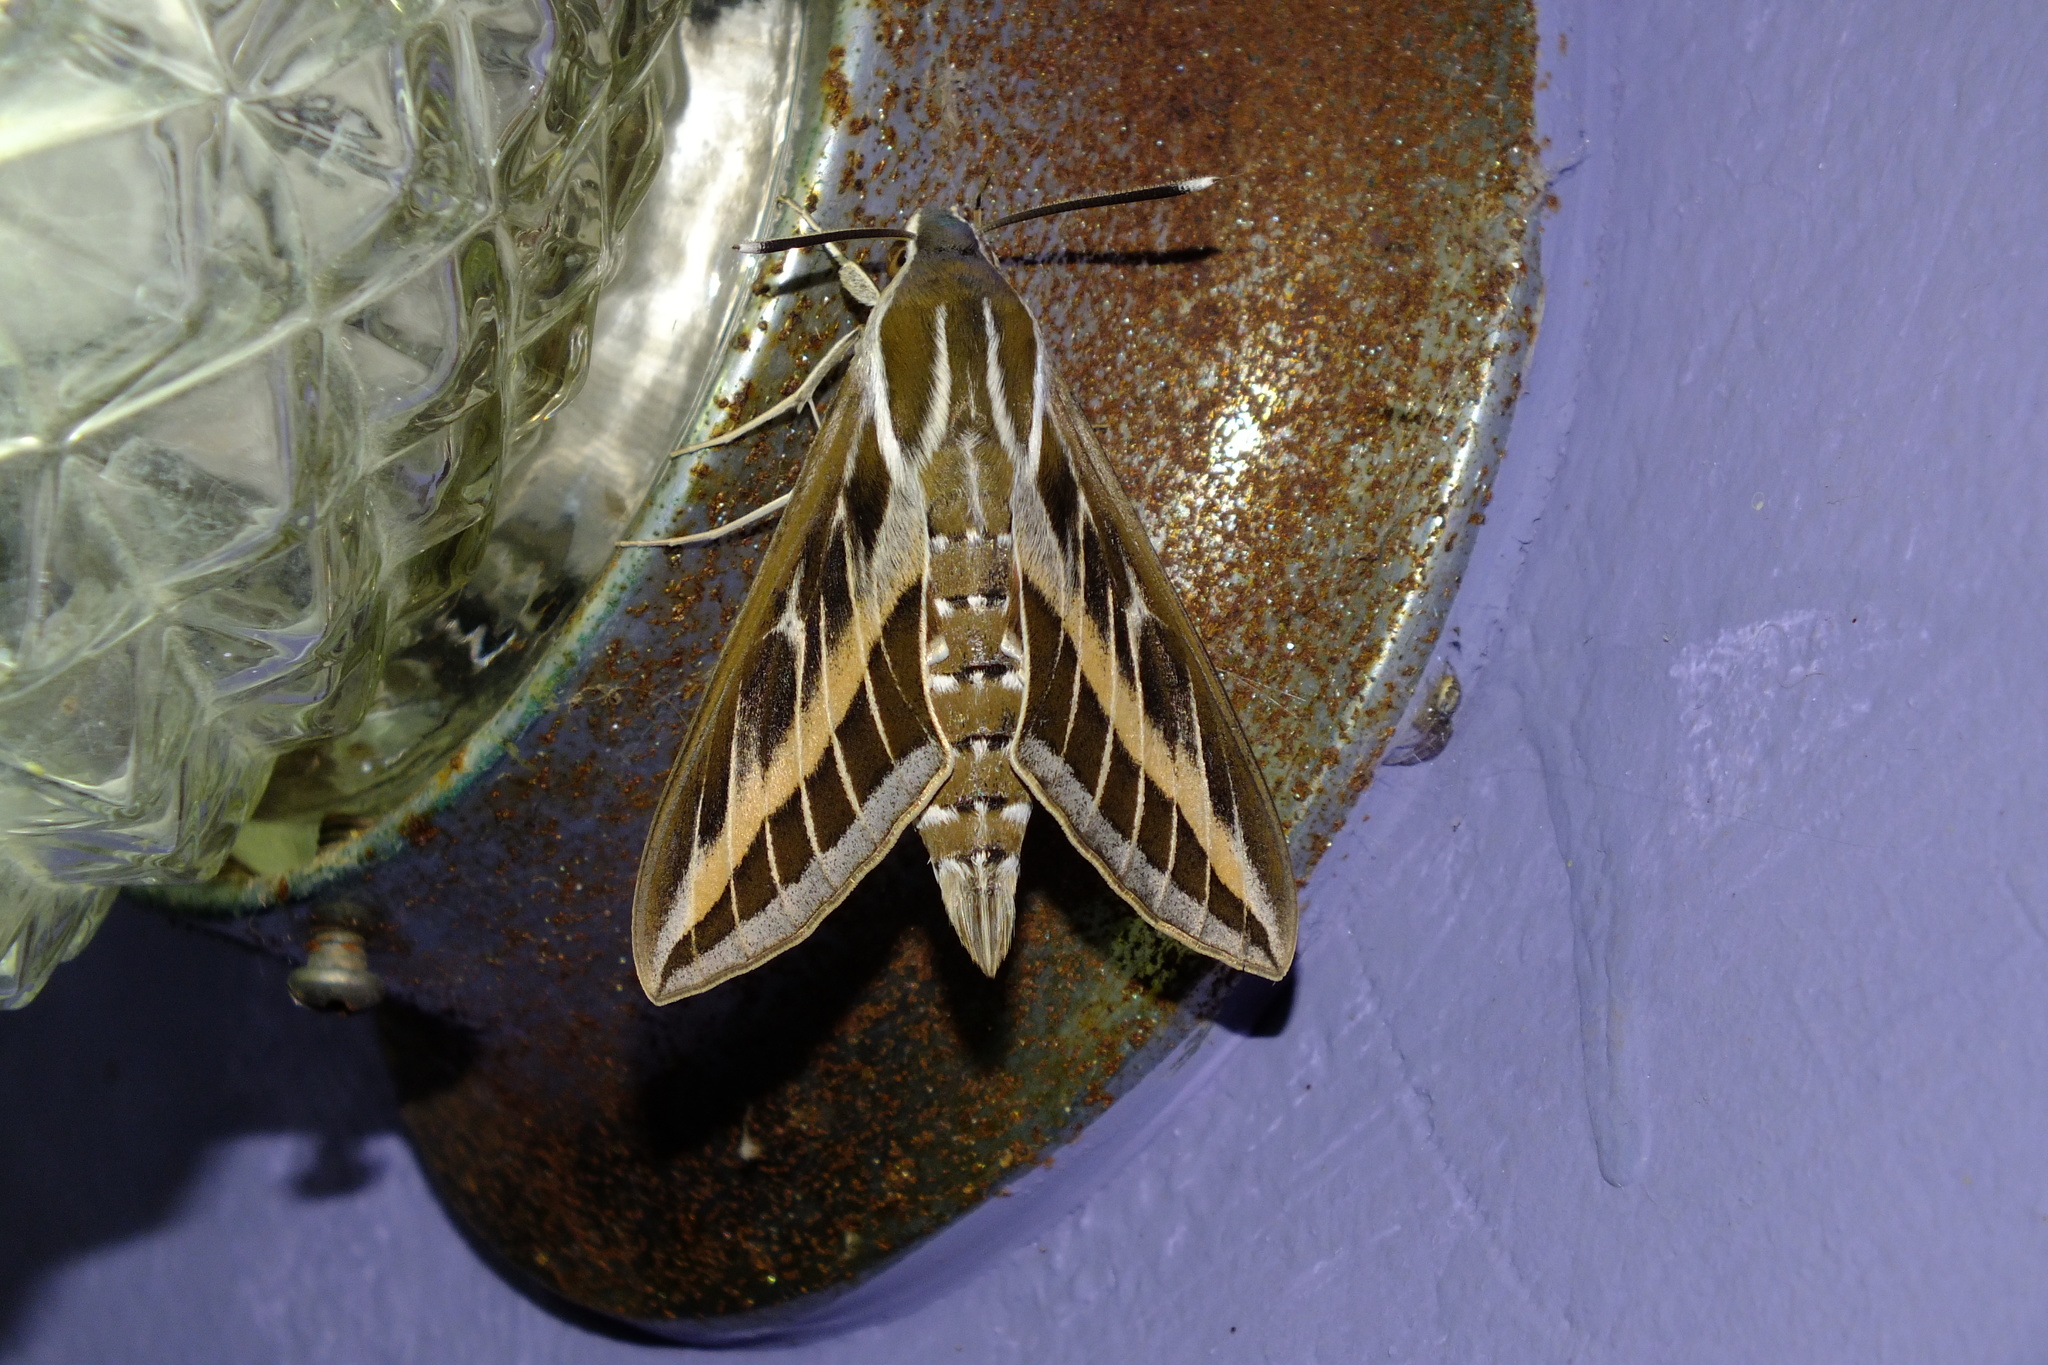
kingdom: Animalia
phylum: Arthropoda
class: Insecta
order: Lepidoptera
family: Sphingidae
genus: Hyles
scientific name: Hyles livornica
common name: Striped hawk-moth
